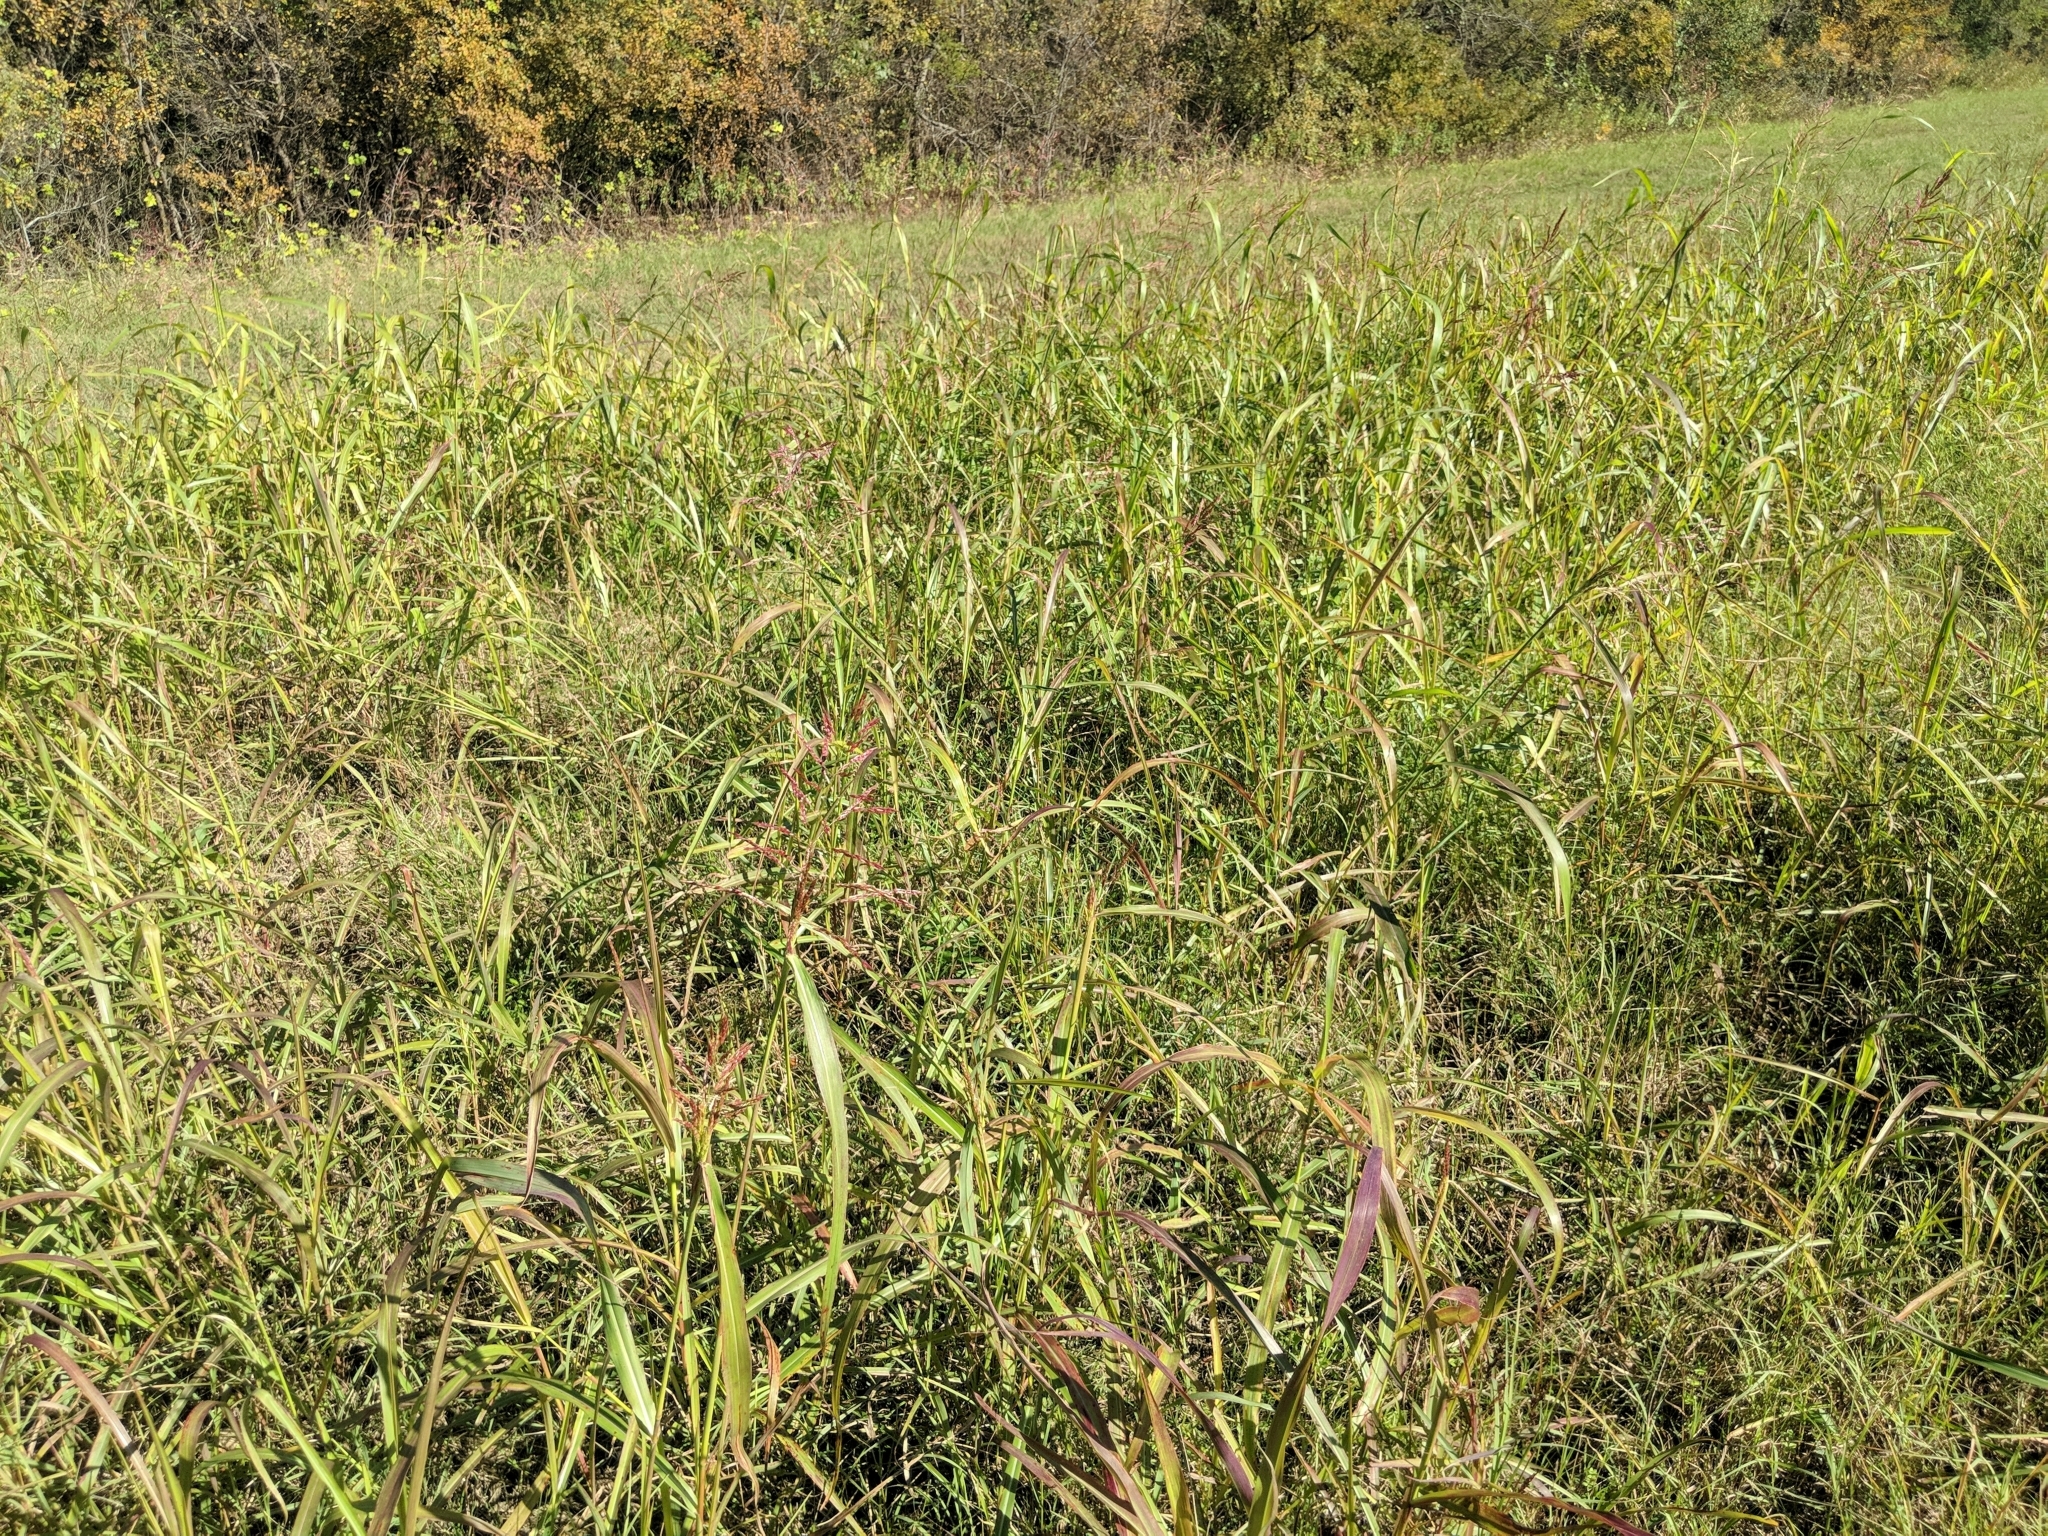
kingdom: Plantae
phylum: Tracheophyta
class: Liliopsida
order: Poales
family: Poaceae
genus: Sorghum
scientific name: Sorghum halepense
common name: Johnson-grass
